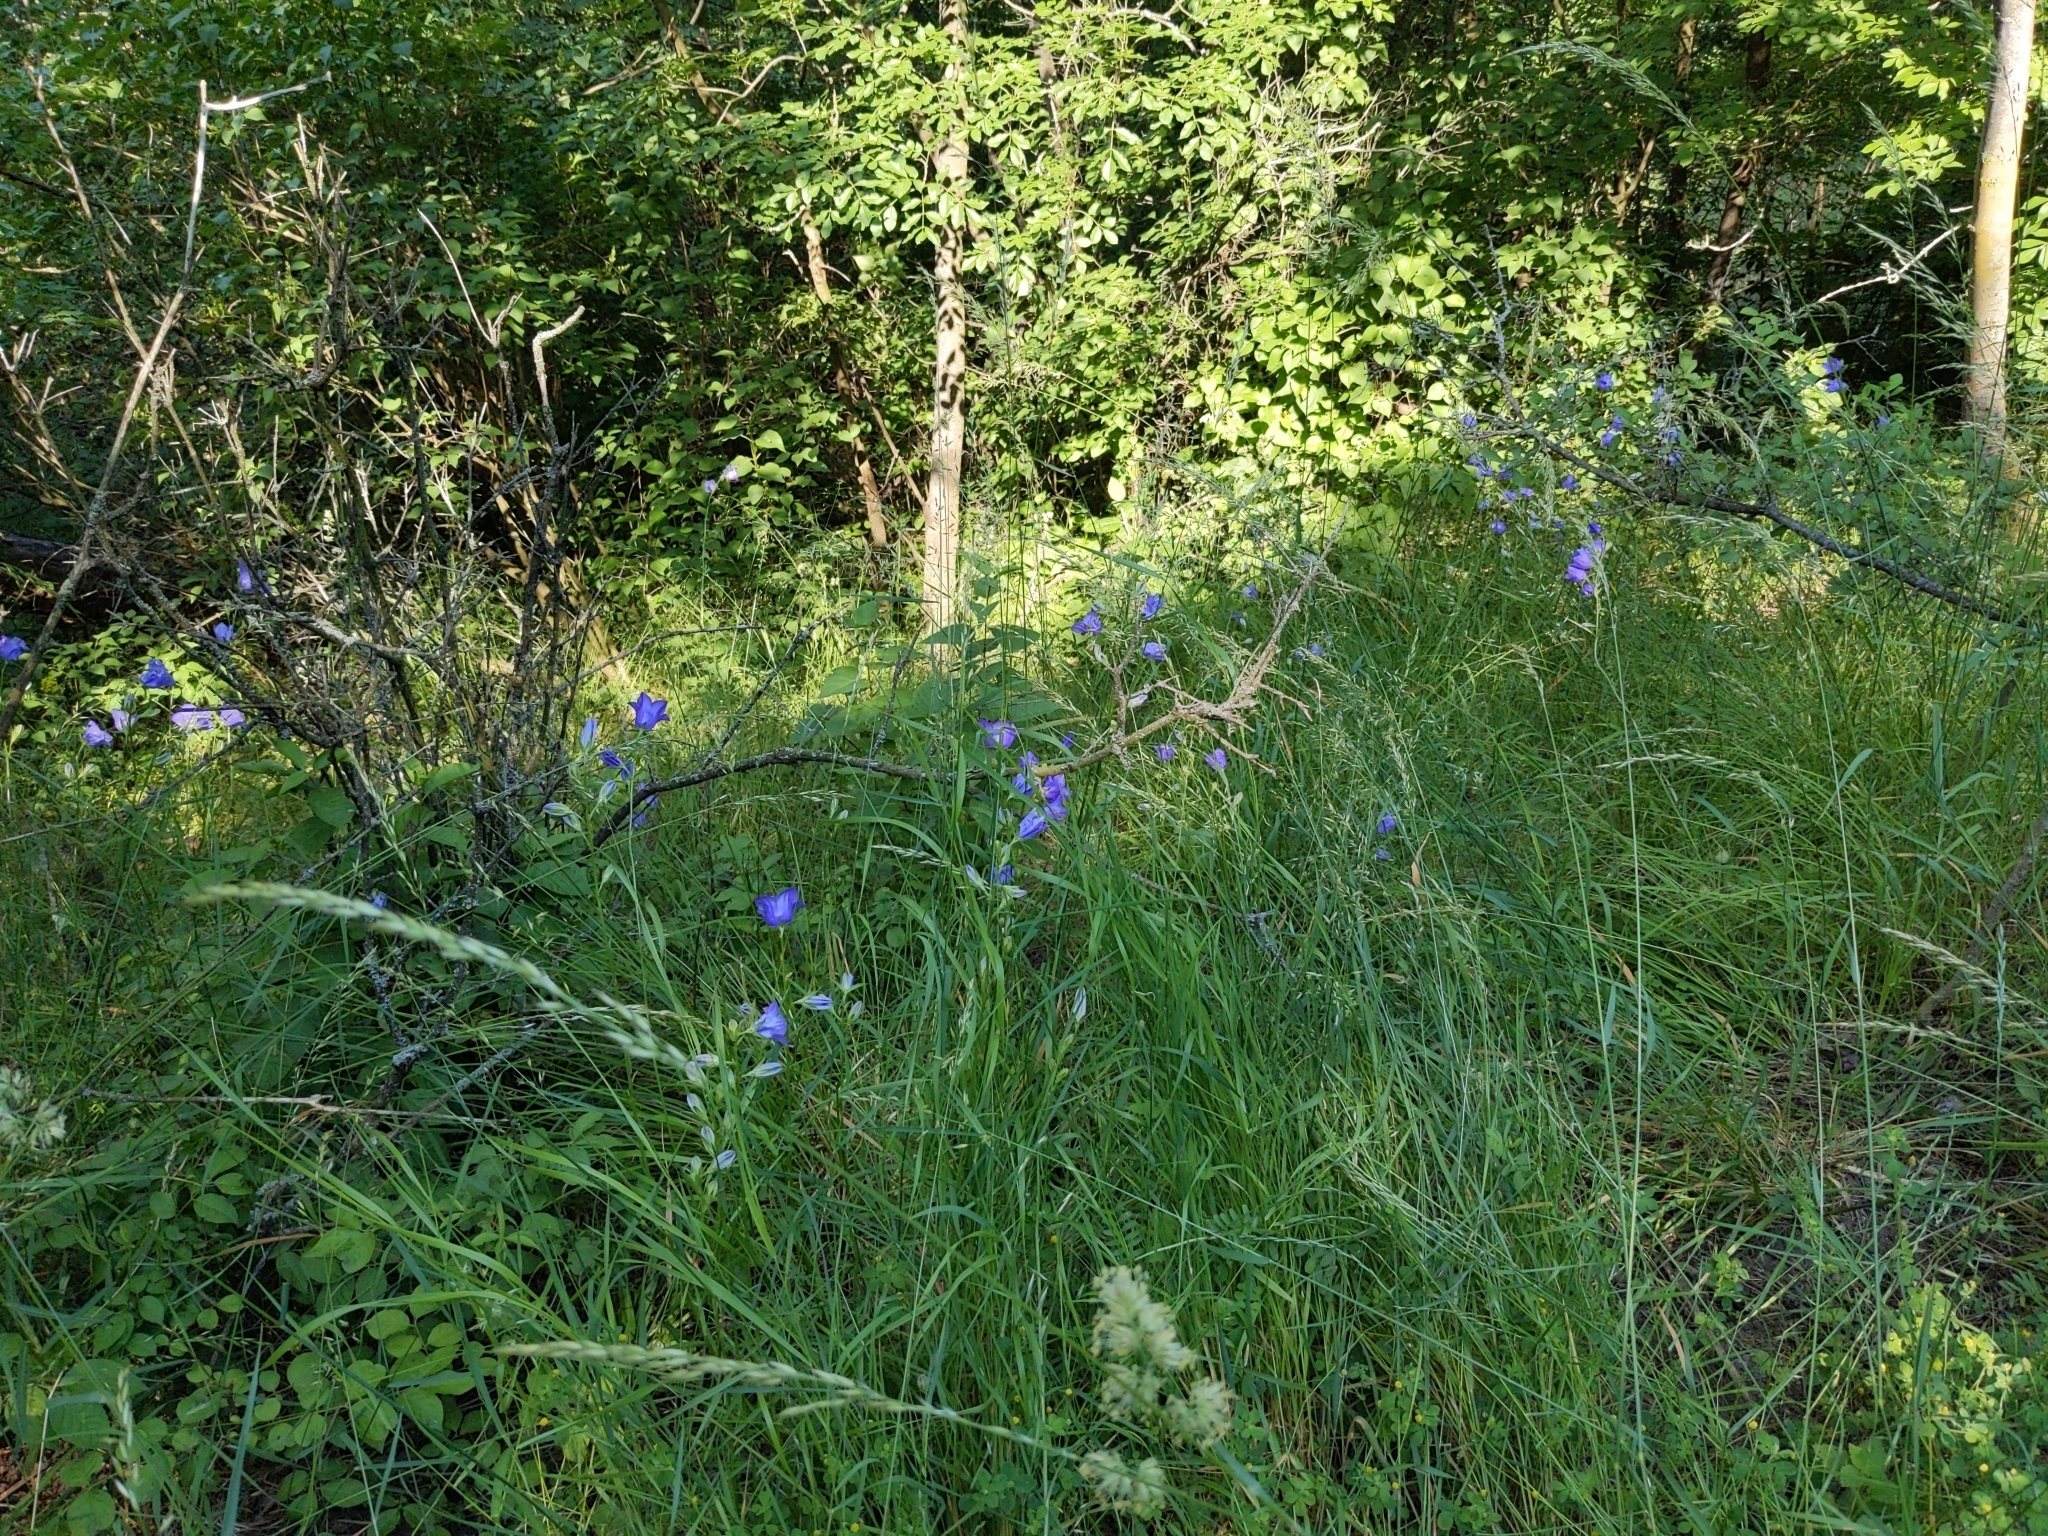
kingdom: Plantae
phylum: Tracheophyta
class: Magnoliopsida
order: Asterales
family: Campanulaceae
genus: Campanula
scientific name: Campanula persicifolia
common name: Peach-leaved bellflower
